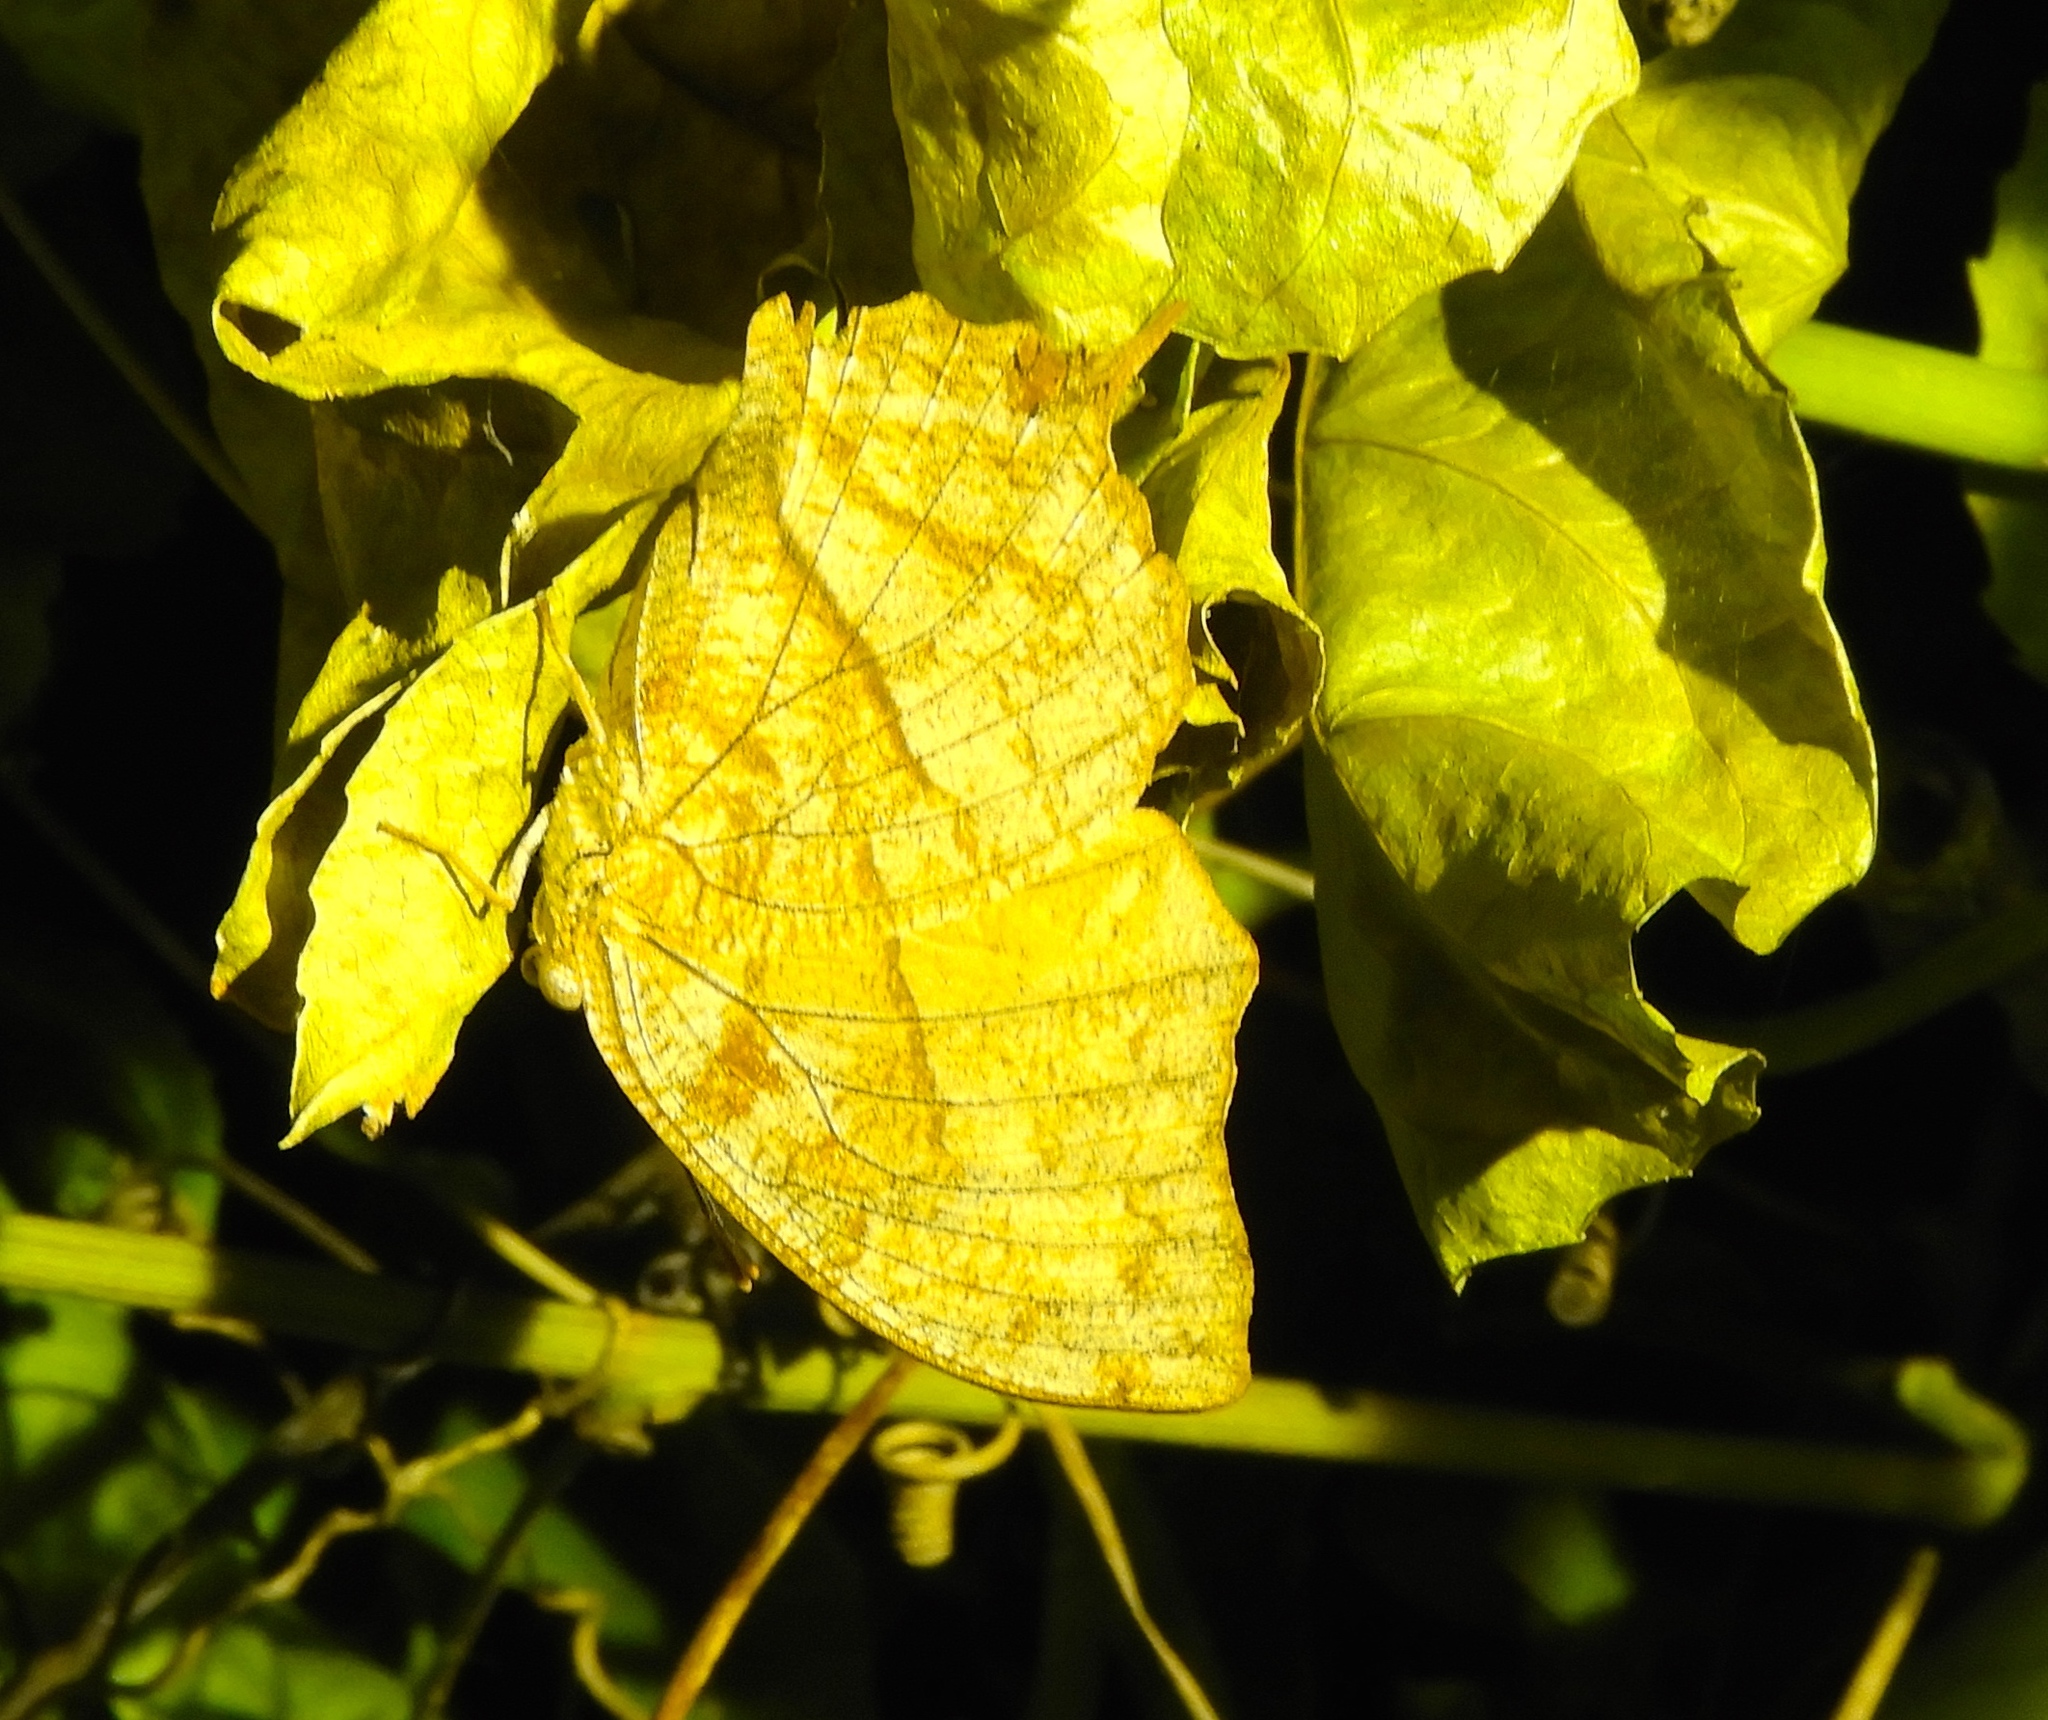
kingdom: Animalia
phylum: Arthropoda
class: Insecta
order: Lepidoptera
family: Nymphalidae
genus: Fountainea
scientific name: Fountainea
